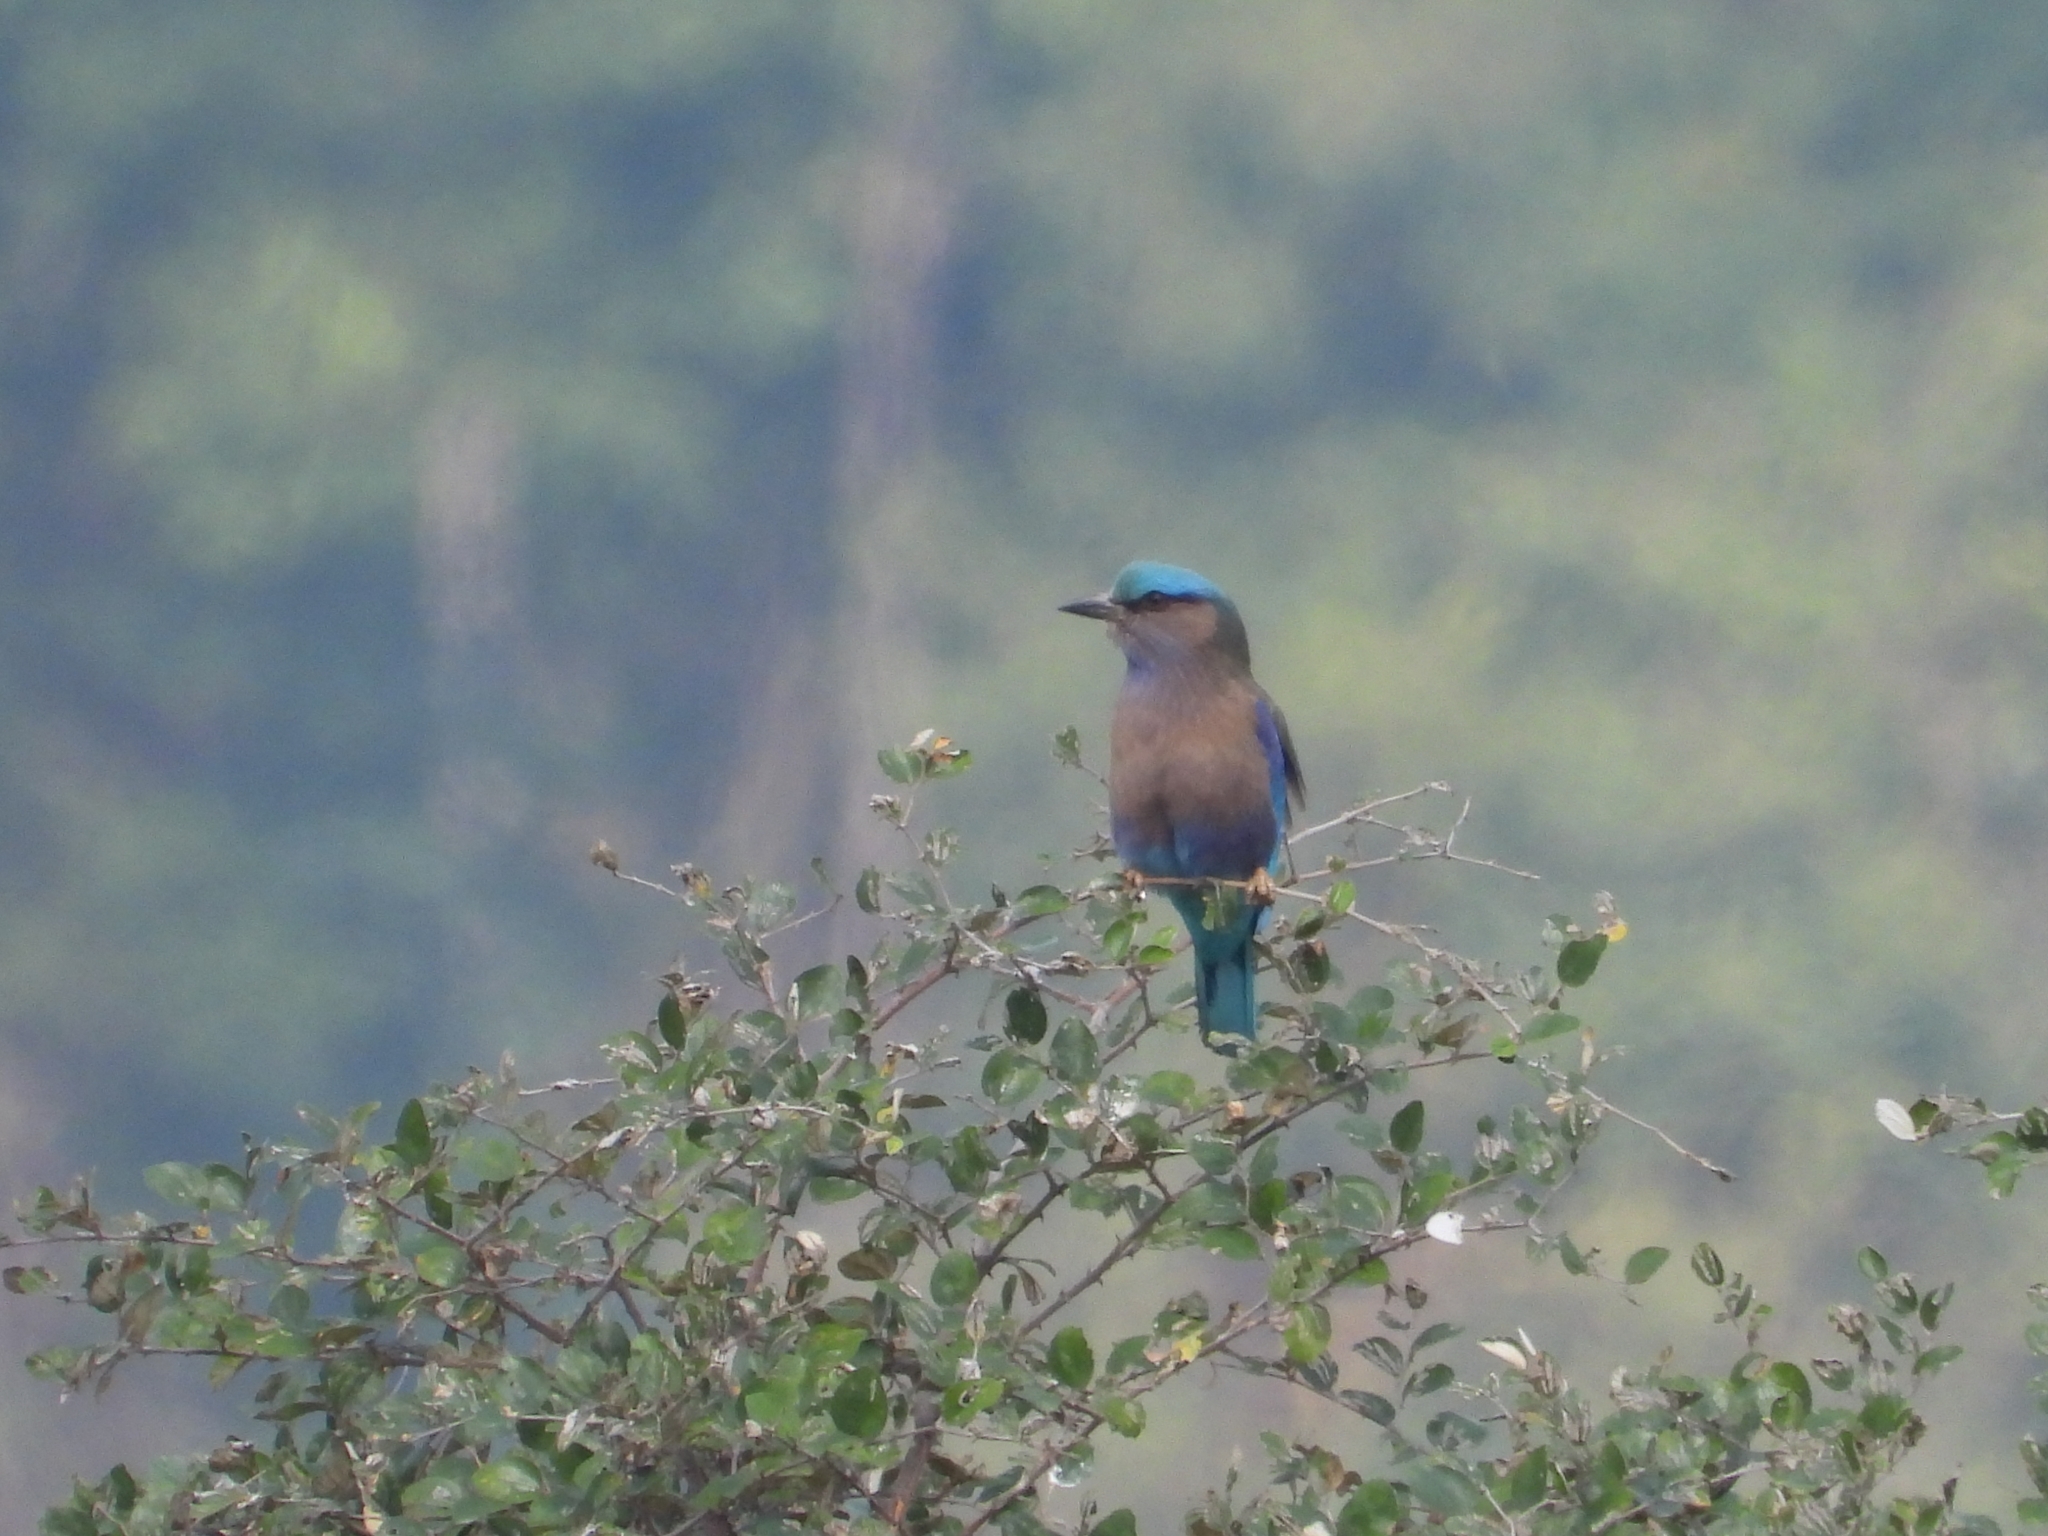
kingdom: Animalia
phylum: Chordata
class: Aves
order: Coraciiformes
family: Coraciidae
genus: Coracias
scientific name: Coracias affinis
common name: Indochinese roller
